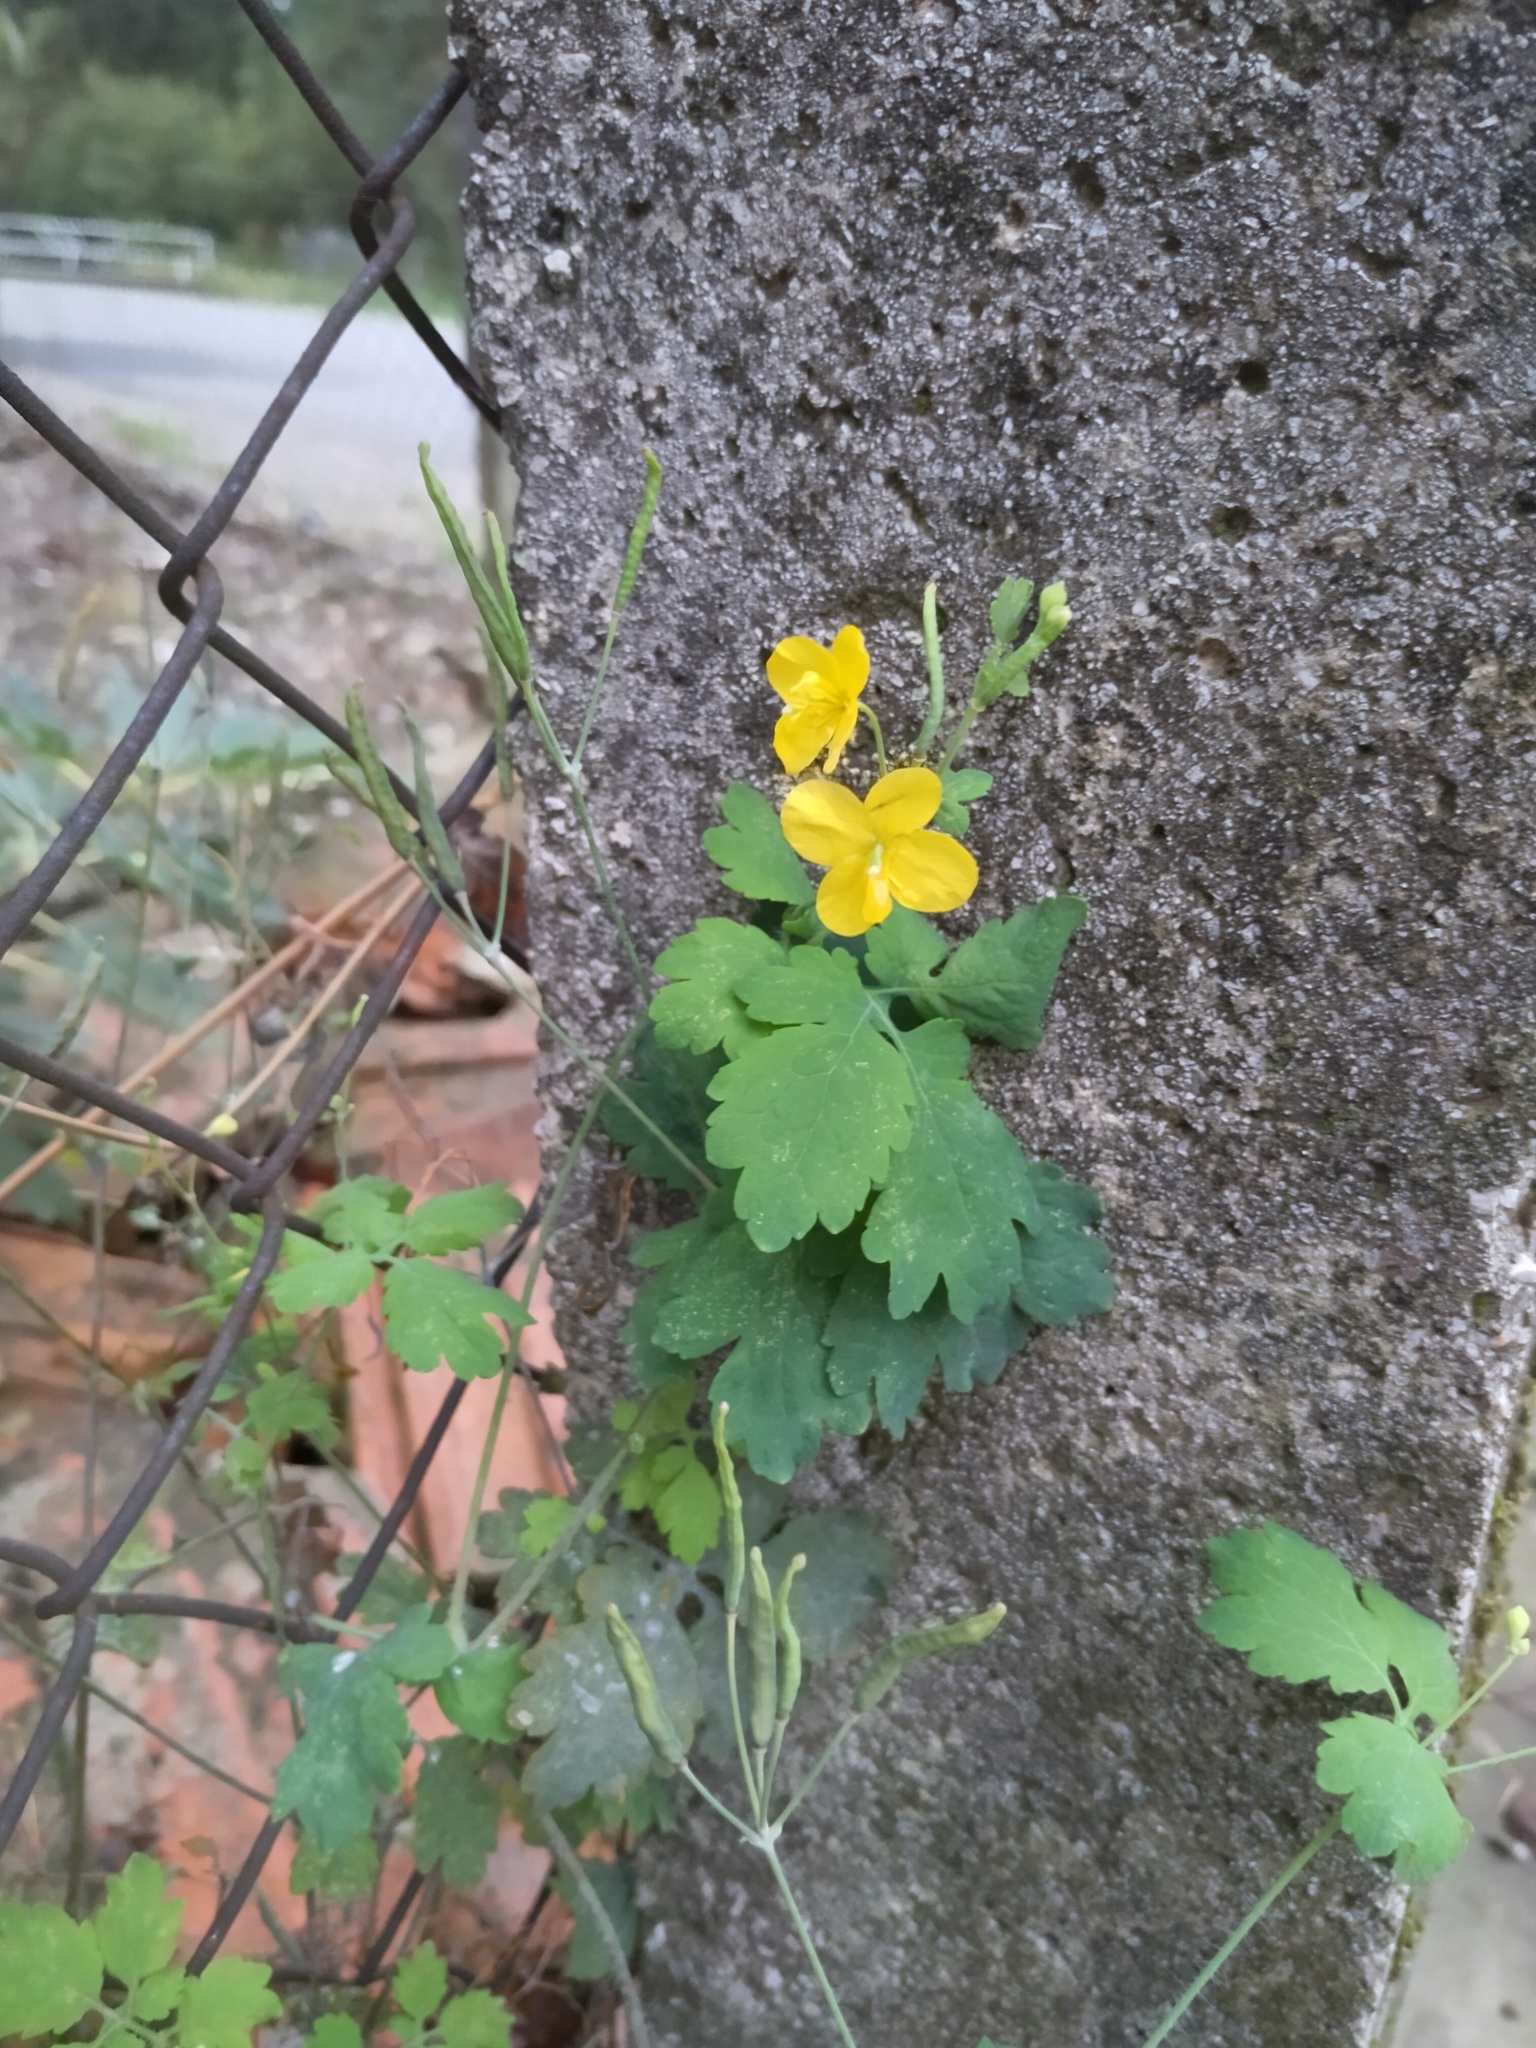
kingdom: Plantae
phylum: Tracheophyta
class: Magnoliopsida
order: Ranunculales
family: Papaveraceae
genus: Chelidonium
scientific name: Chelidonium majus
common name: Greater celandine
